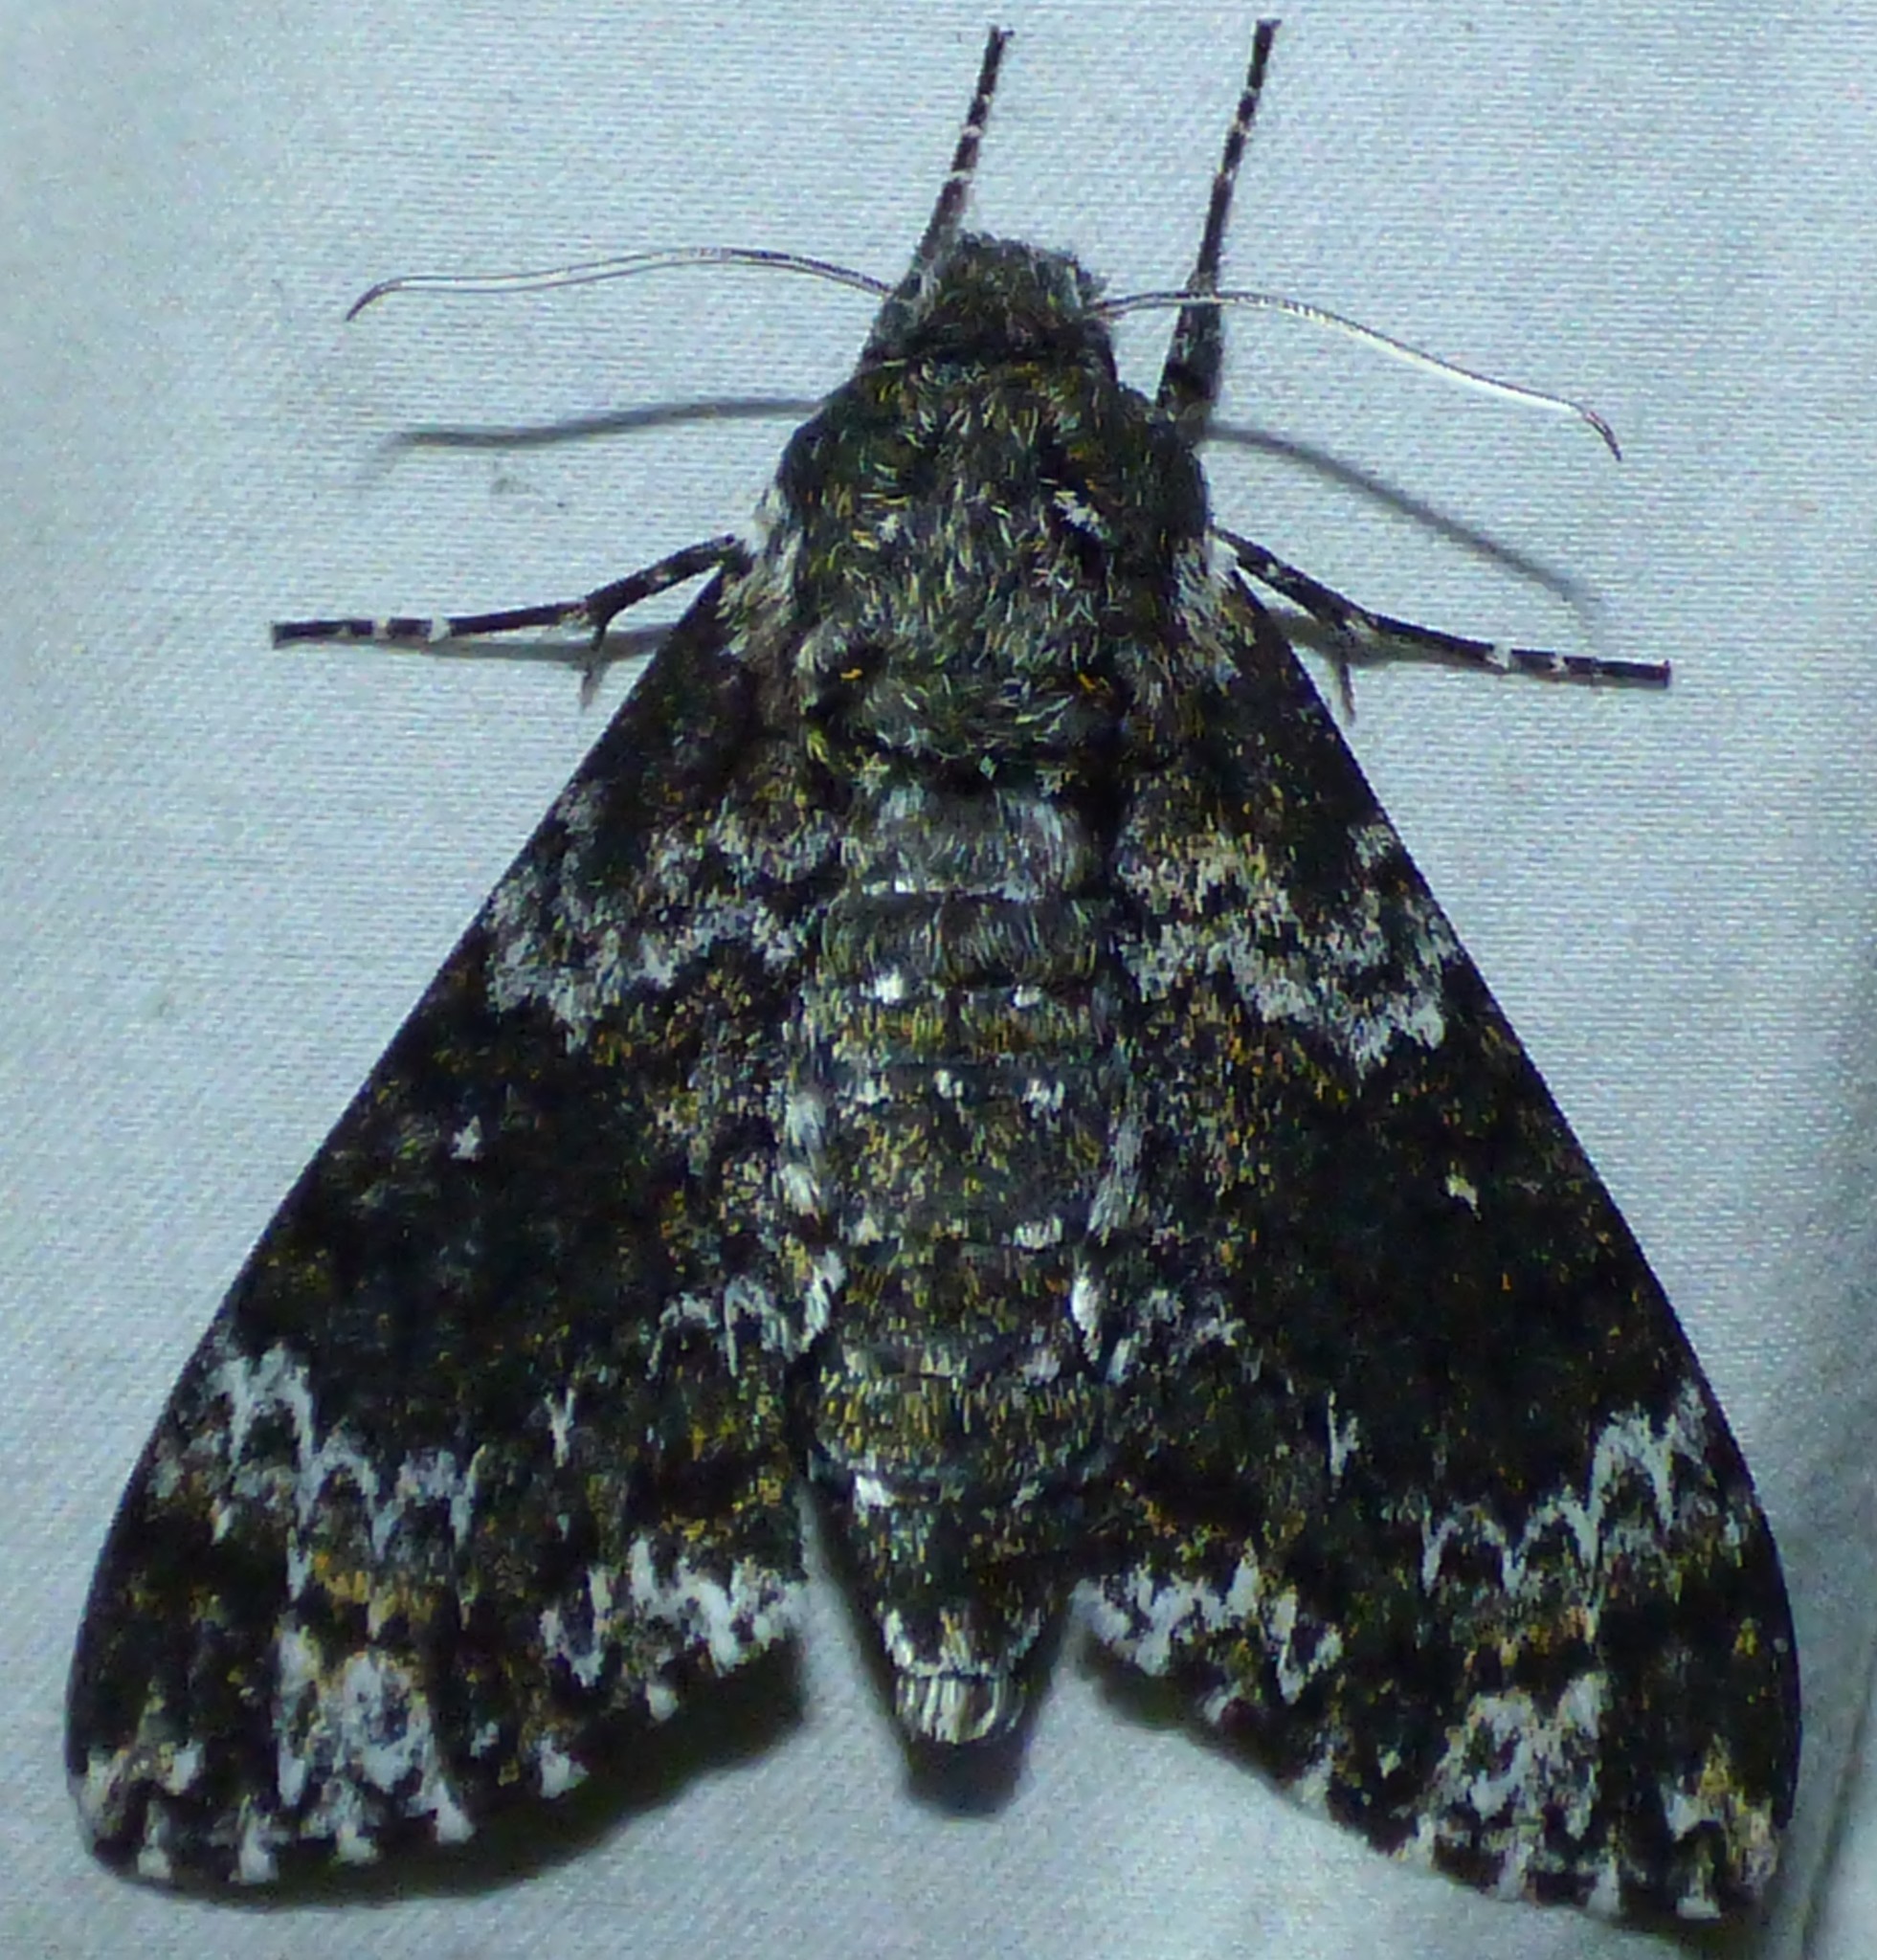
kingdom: Animalia
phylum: Arthropoda
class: Insecta
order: Lepidoptera
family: Sphingidae
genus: Dolba
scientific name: Dolba hyloeus
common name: Pawpaw sphinx
